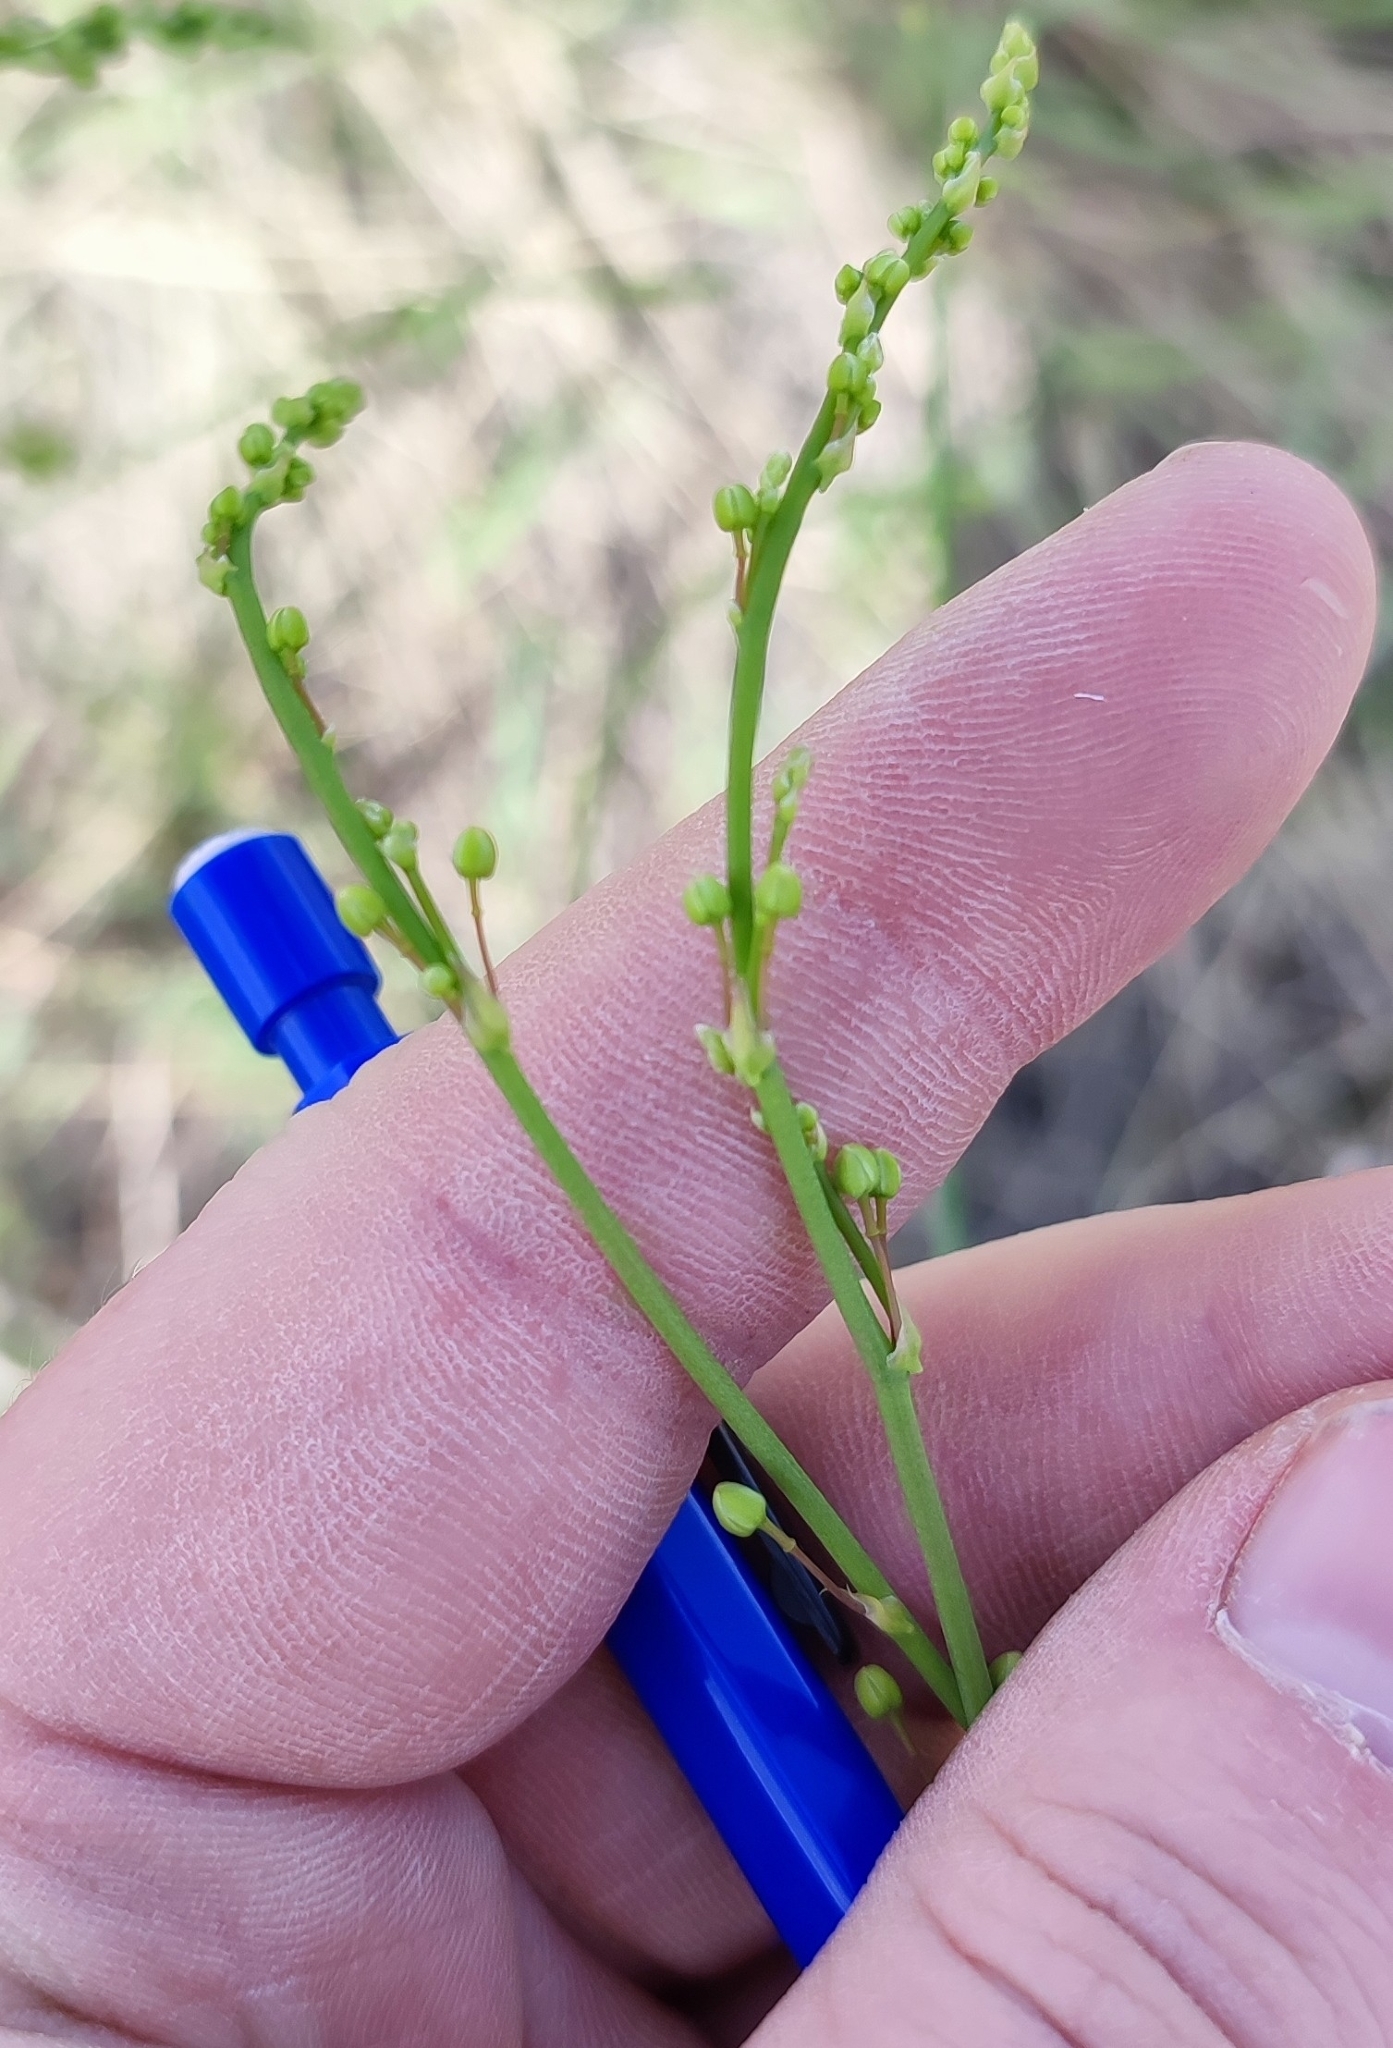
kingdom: Plantae
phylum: Tracheophyta
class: Liliopsida
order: Asparagales
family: Asparagaceae
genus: Asparagus
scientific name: Asparagus officinalis
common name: Garden asparagus
